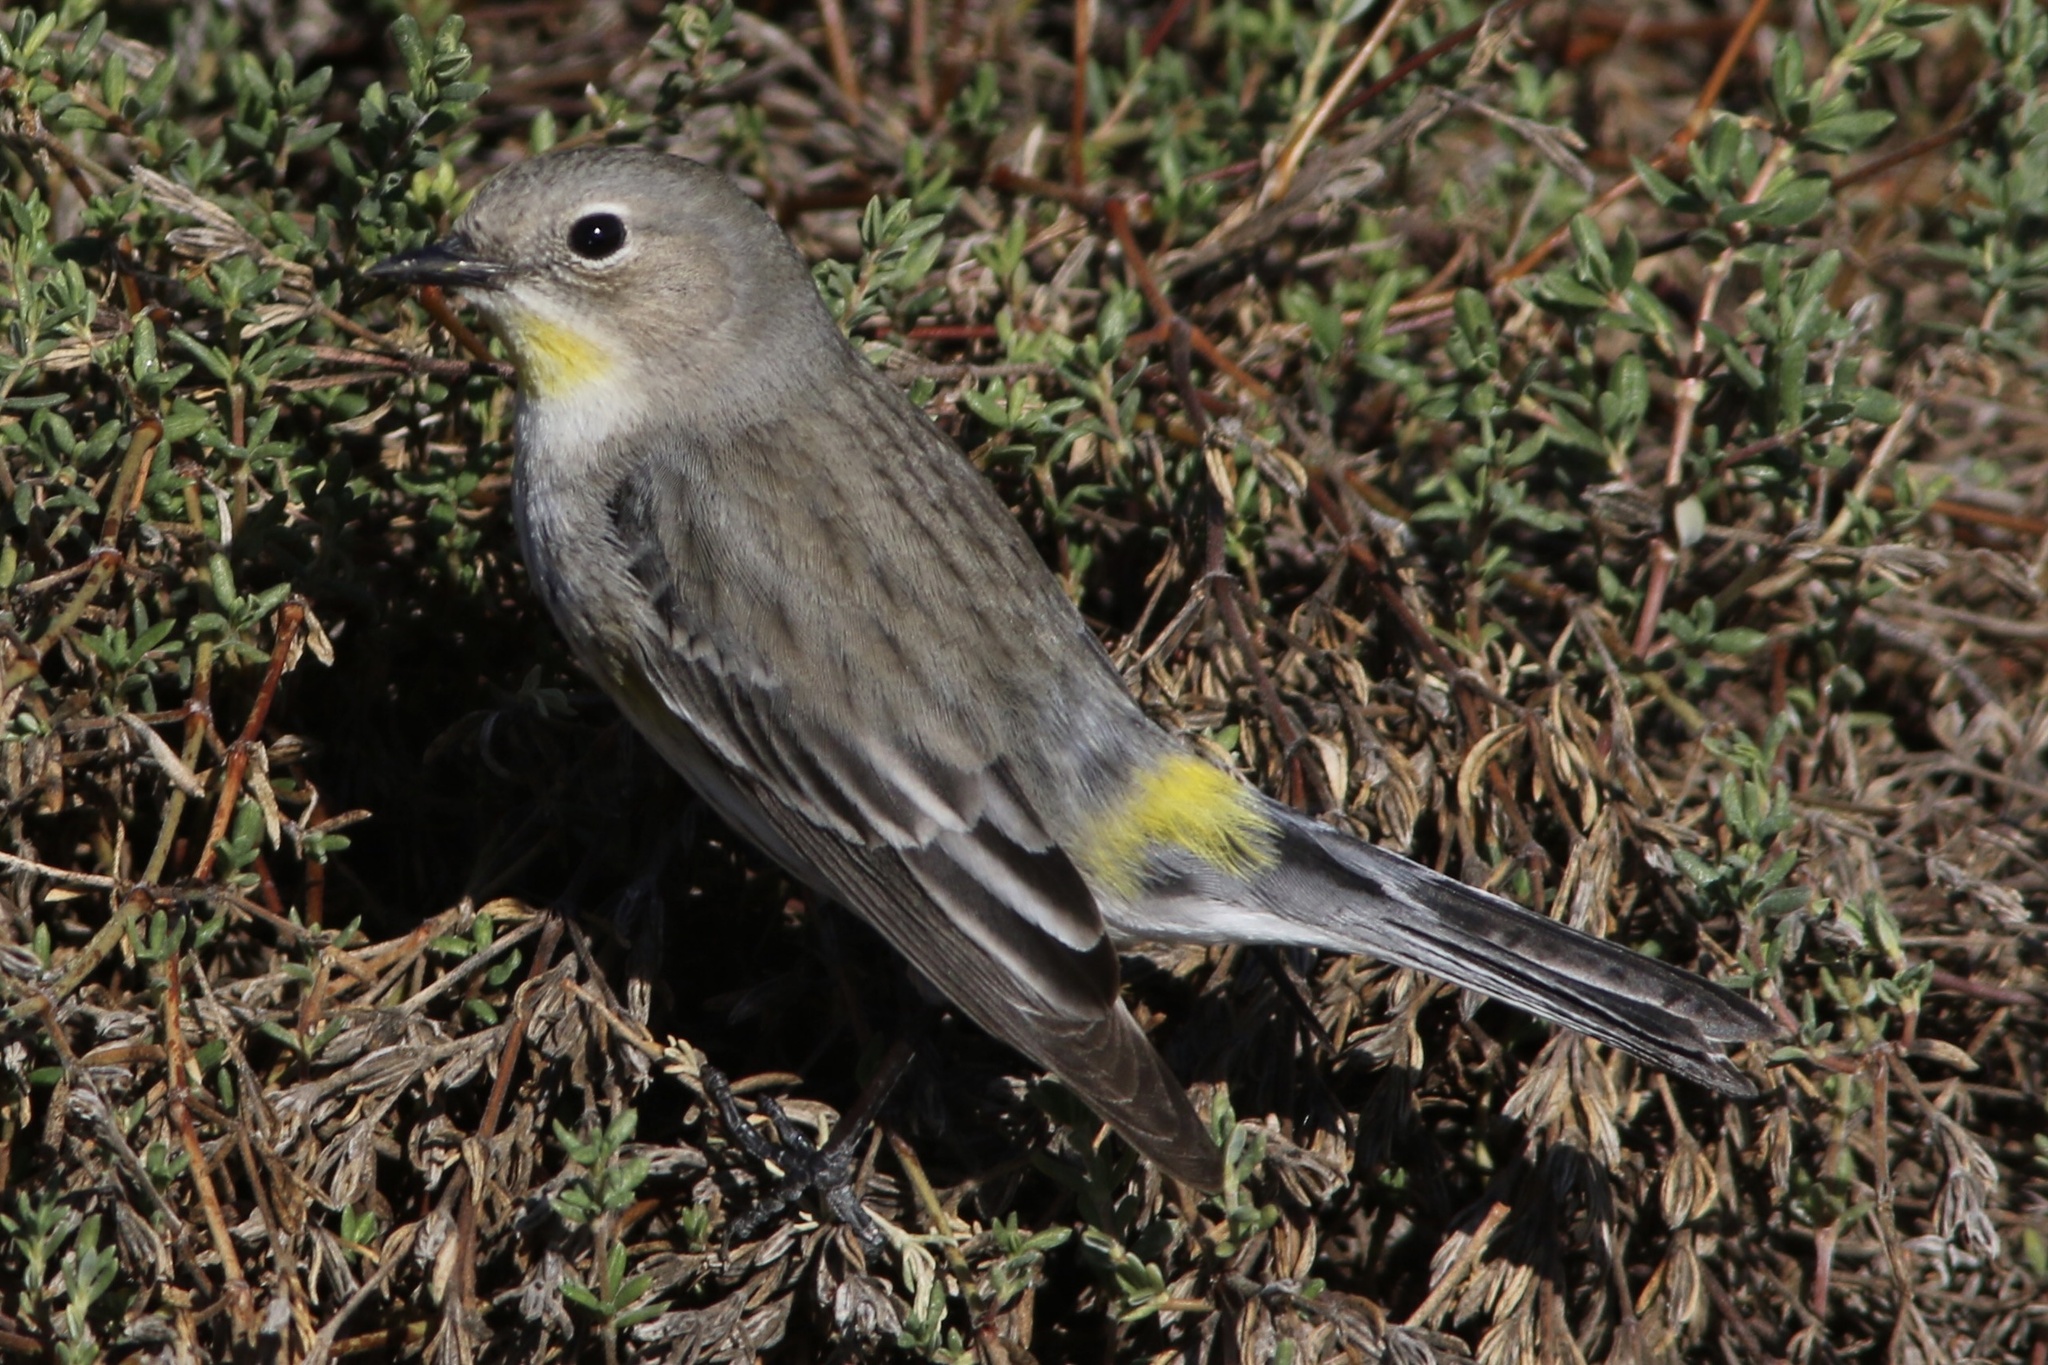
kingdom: Animalia
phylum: Chordata
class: Aves
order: Passeriformes
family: Parulidae
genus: Setophaga
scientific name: Setophaga coronata
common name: Myrtle warbler
